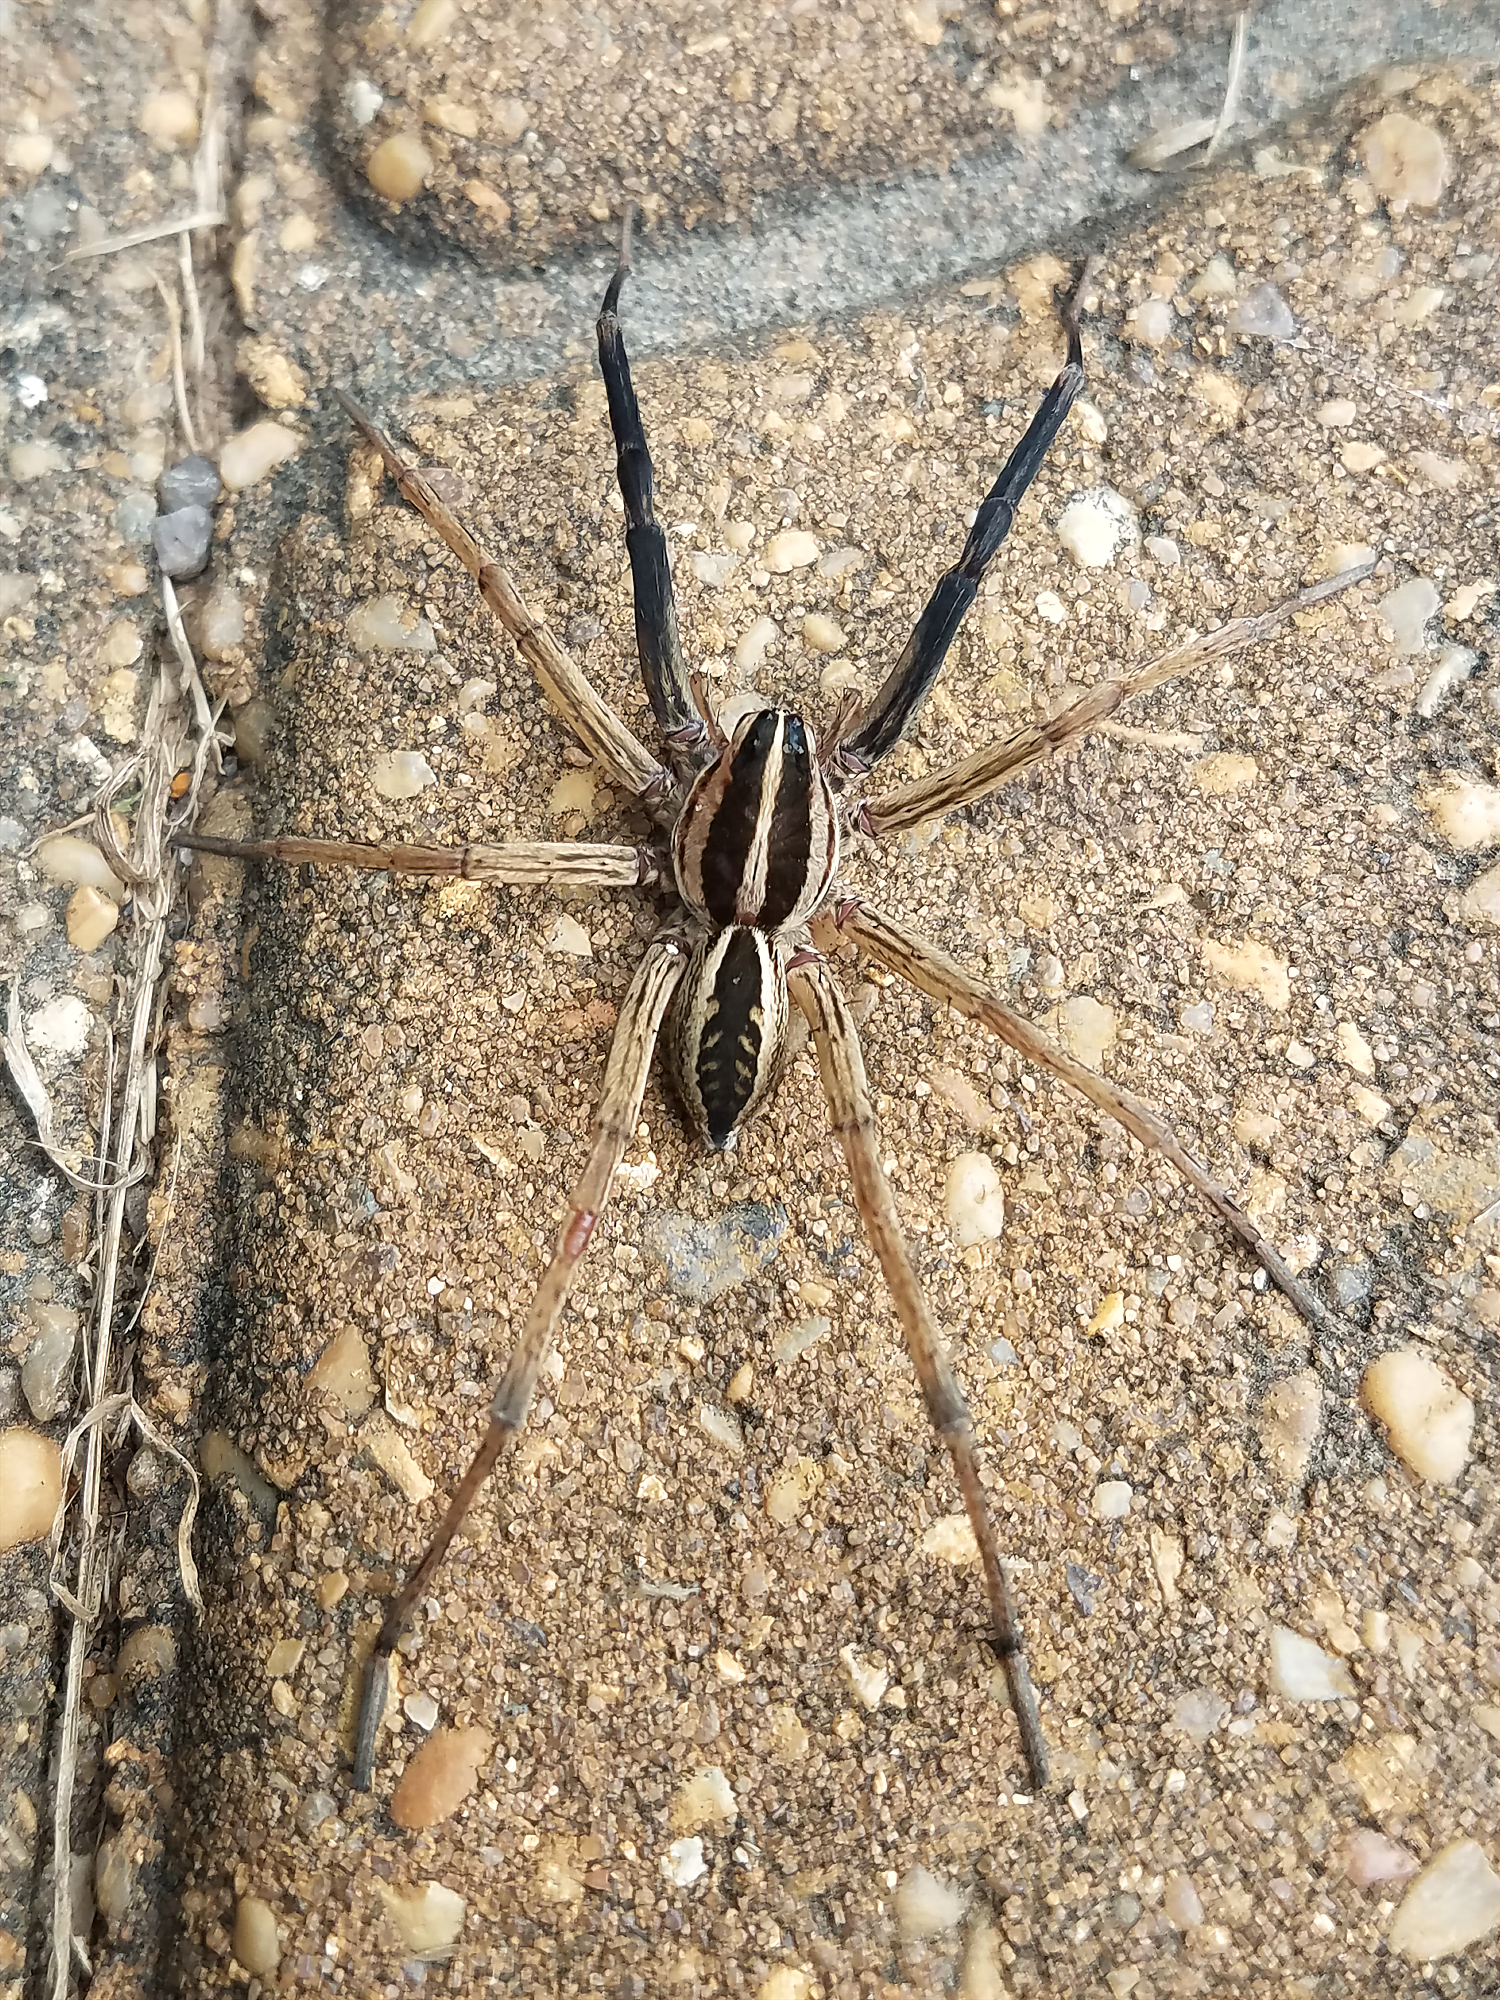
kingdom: Animalia
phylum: Arthropoda
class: Arachnida
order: Araneae
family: Lycosidae
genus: Rabidosa
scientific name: Rabidosa rabida
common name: Rabid wolf spider
